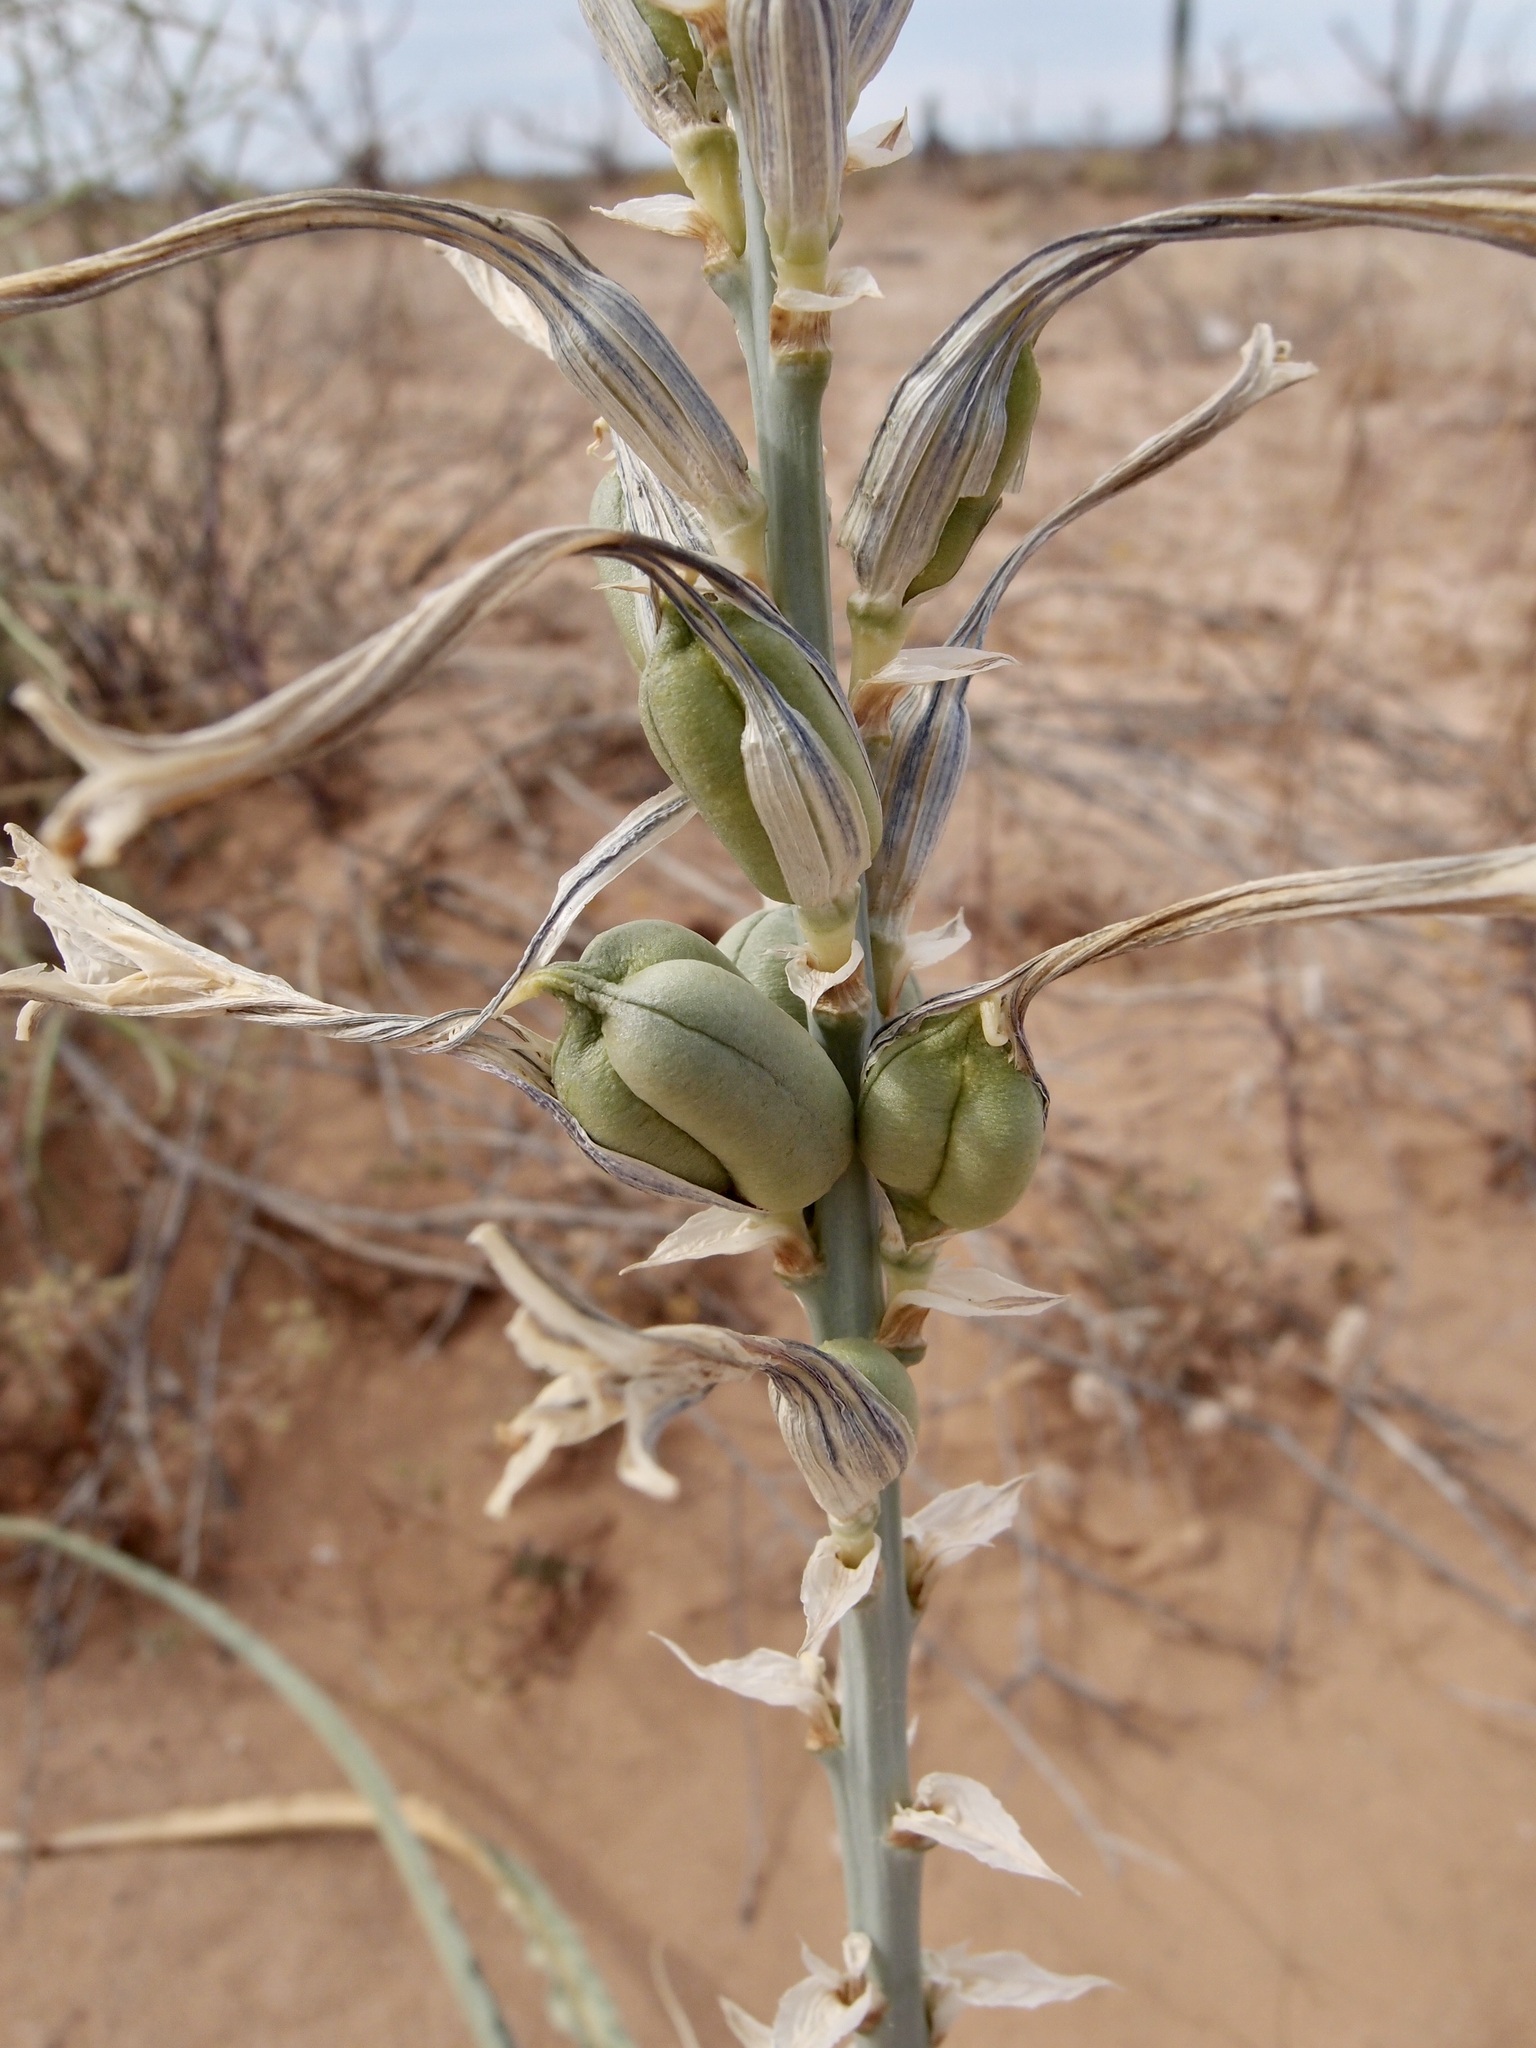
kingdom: Plantae
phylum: Tracheophyta
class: Liliopsida
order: Asparagales
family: Asparagaceae
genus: Hesperocallis
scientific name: Hesperocallis undulata
